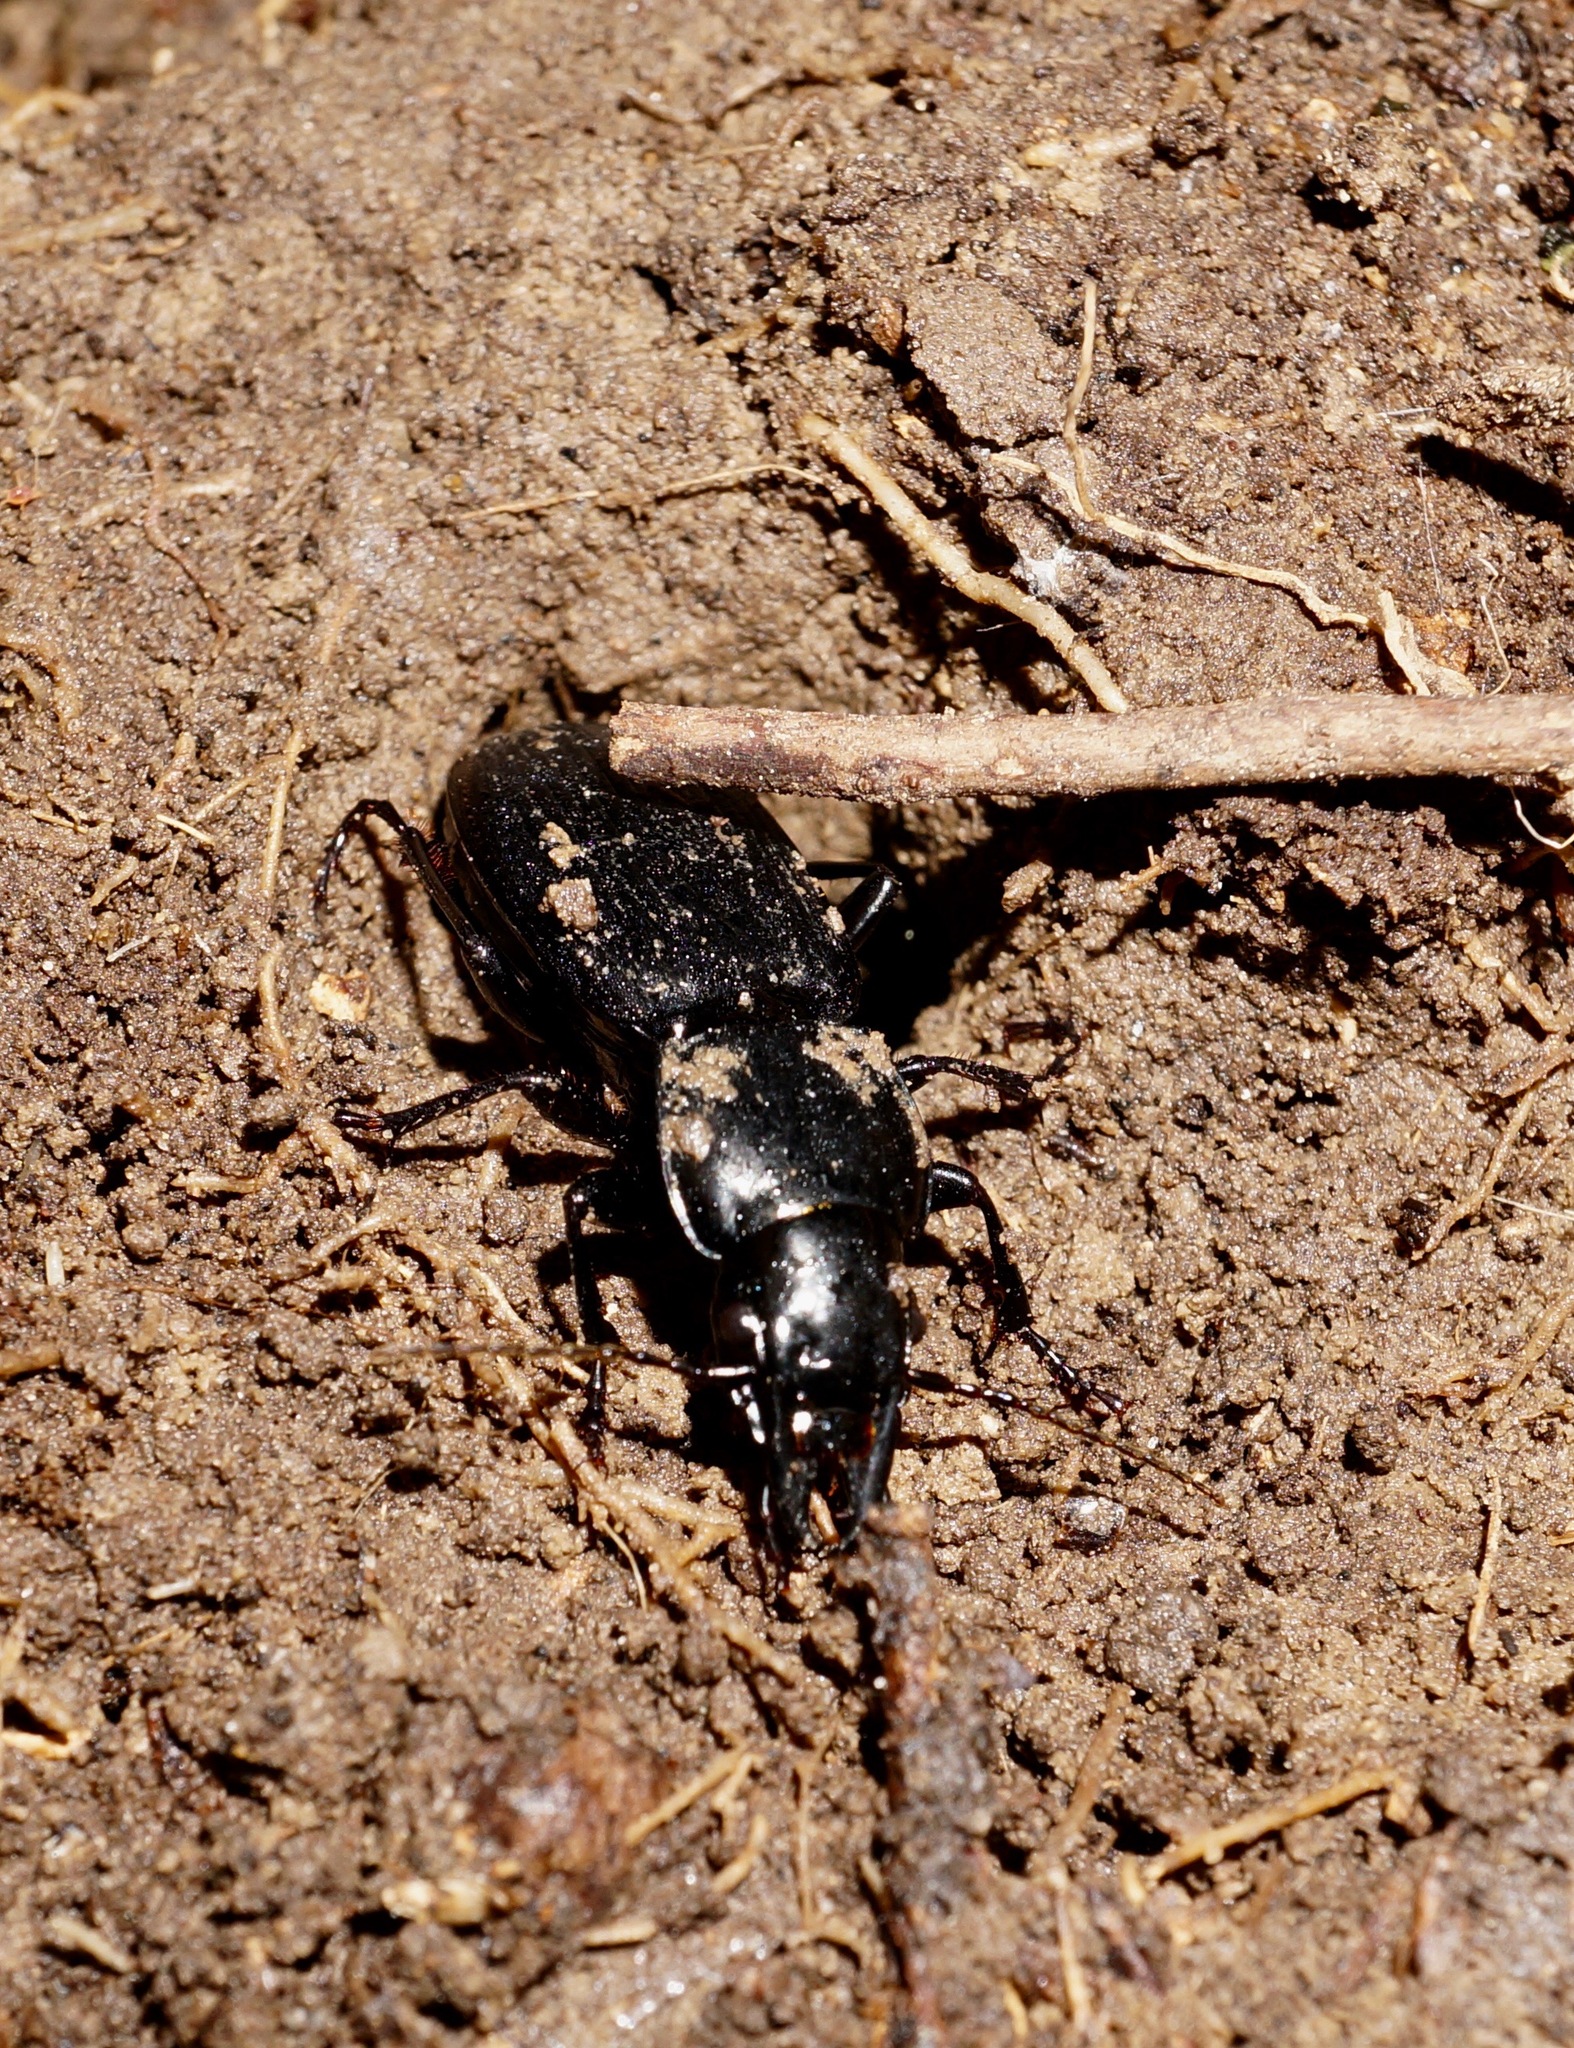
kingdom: Animalia
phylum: Arthropoda
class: Insecta
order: Coleoptera
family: Carabidae
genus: Plocamostethus
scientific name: Plocamostethus planiusculus
